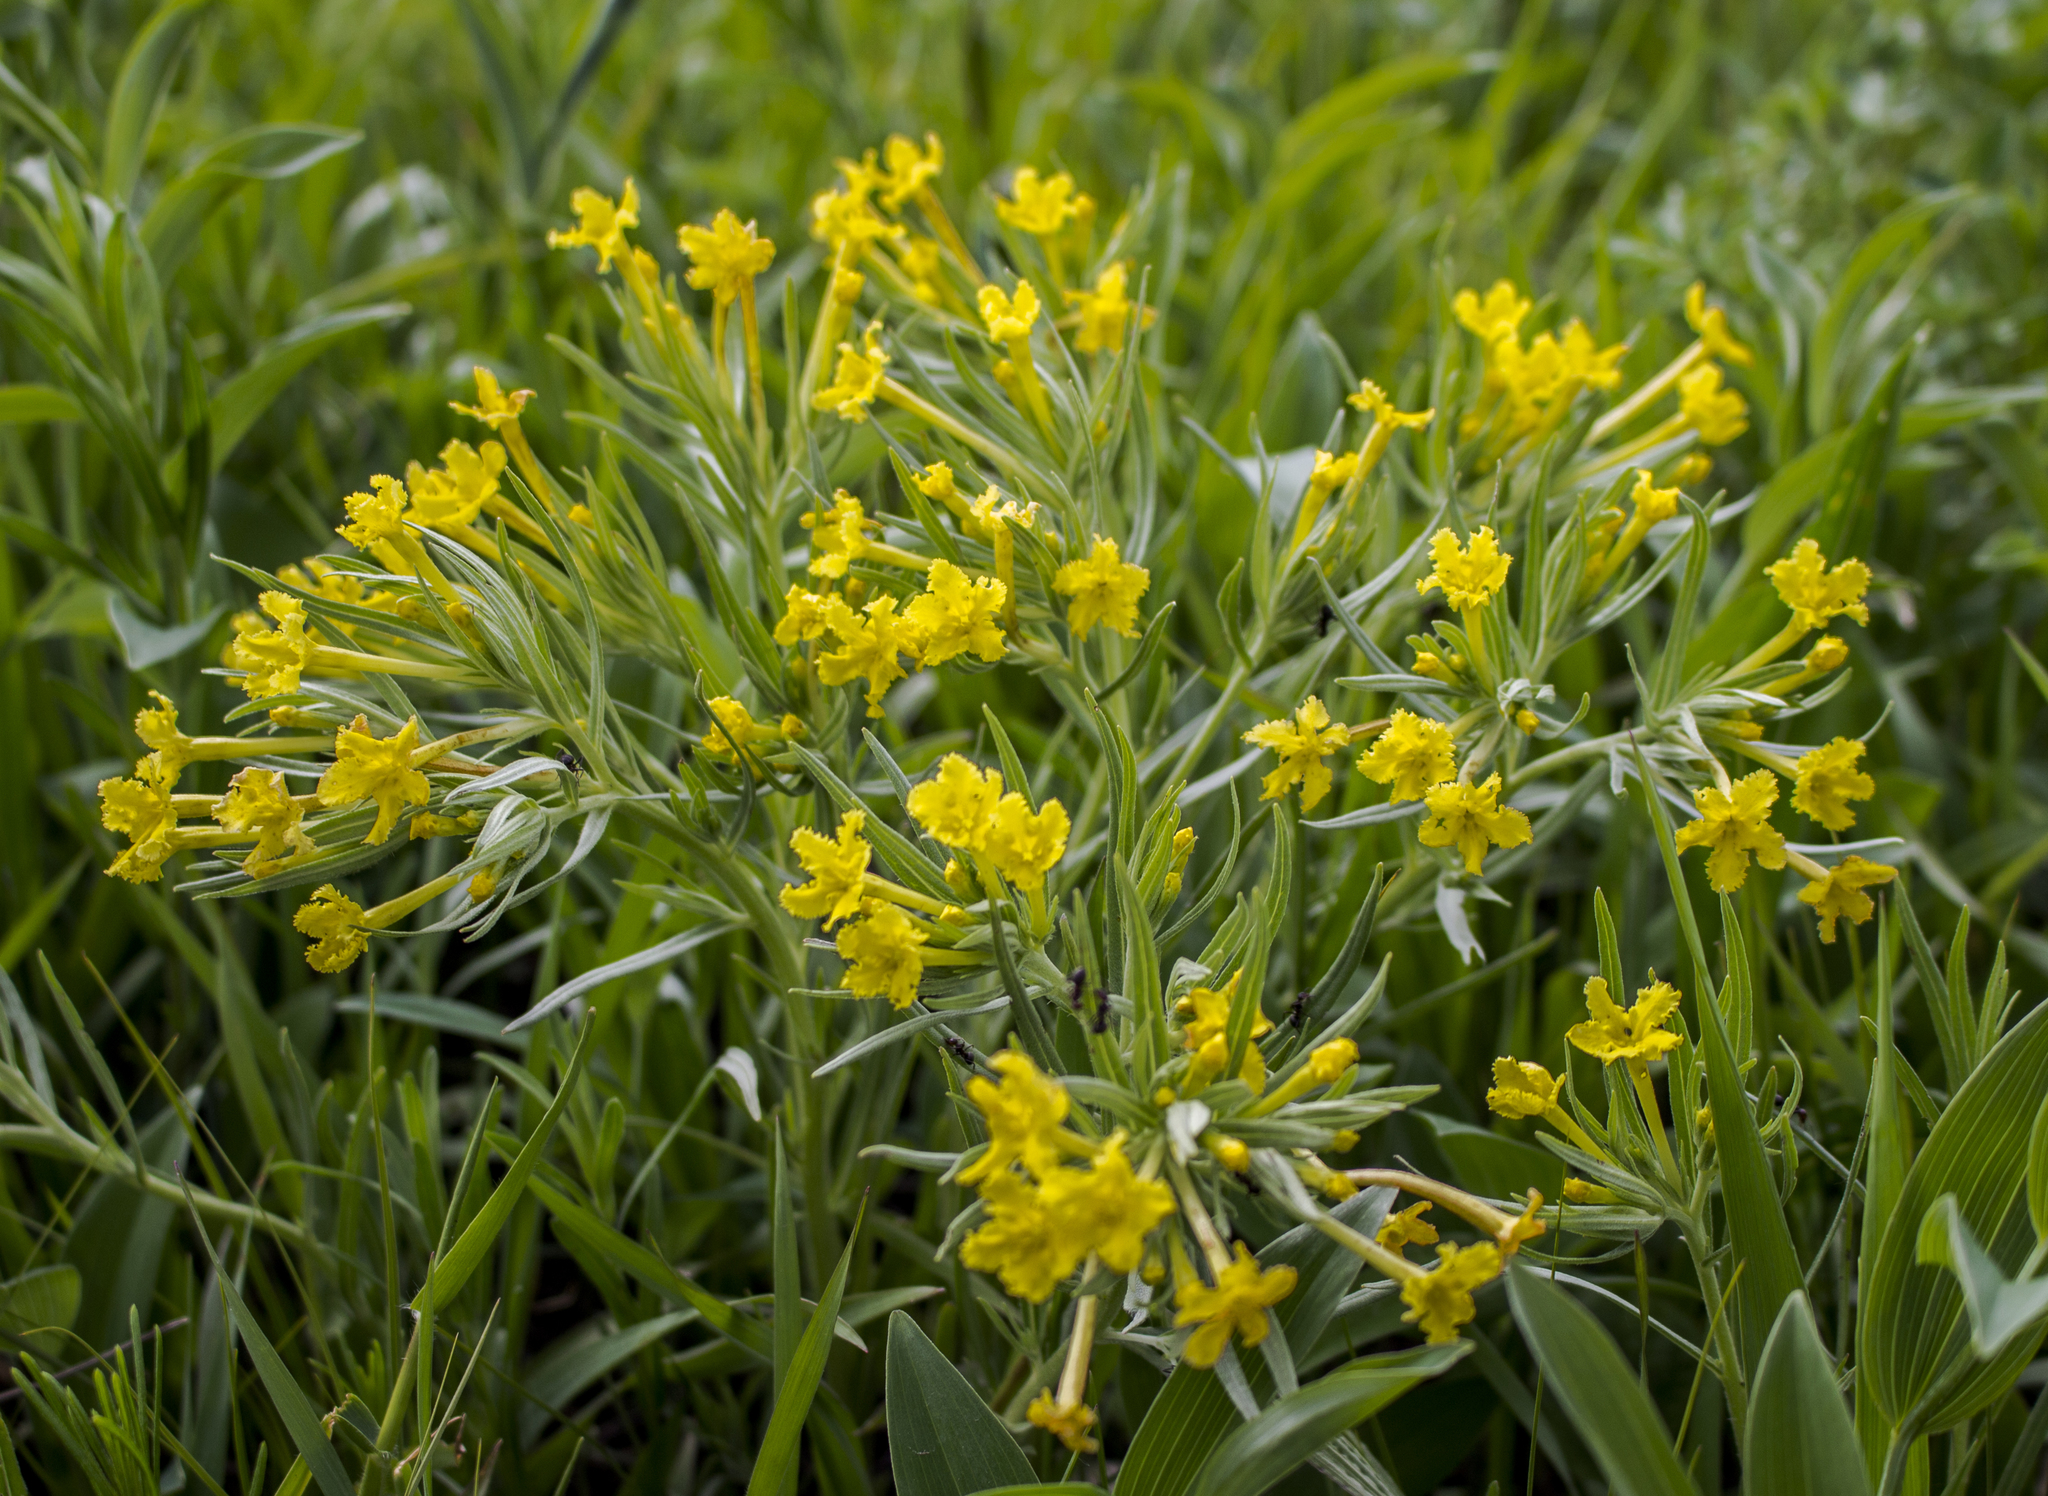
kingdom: Plantae
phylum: Tracheophyta
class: Magnoliopsida
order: Boraginales
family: Boraginaceae
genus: Lithospermum
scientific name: Lithospermum incisum
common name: Fringed gromwell
